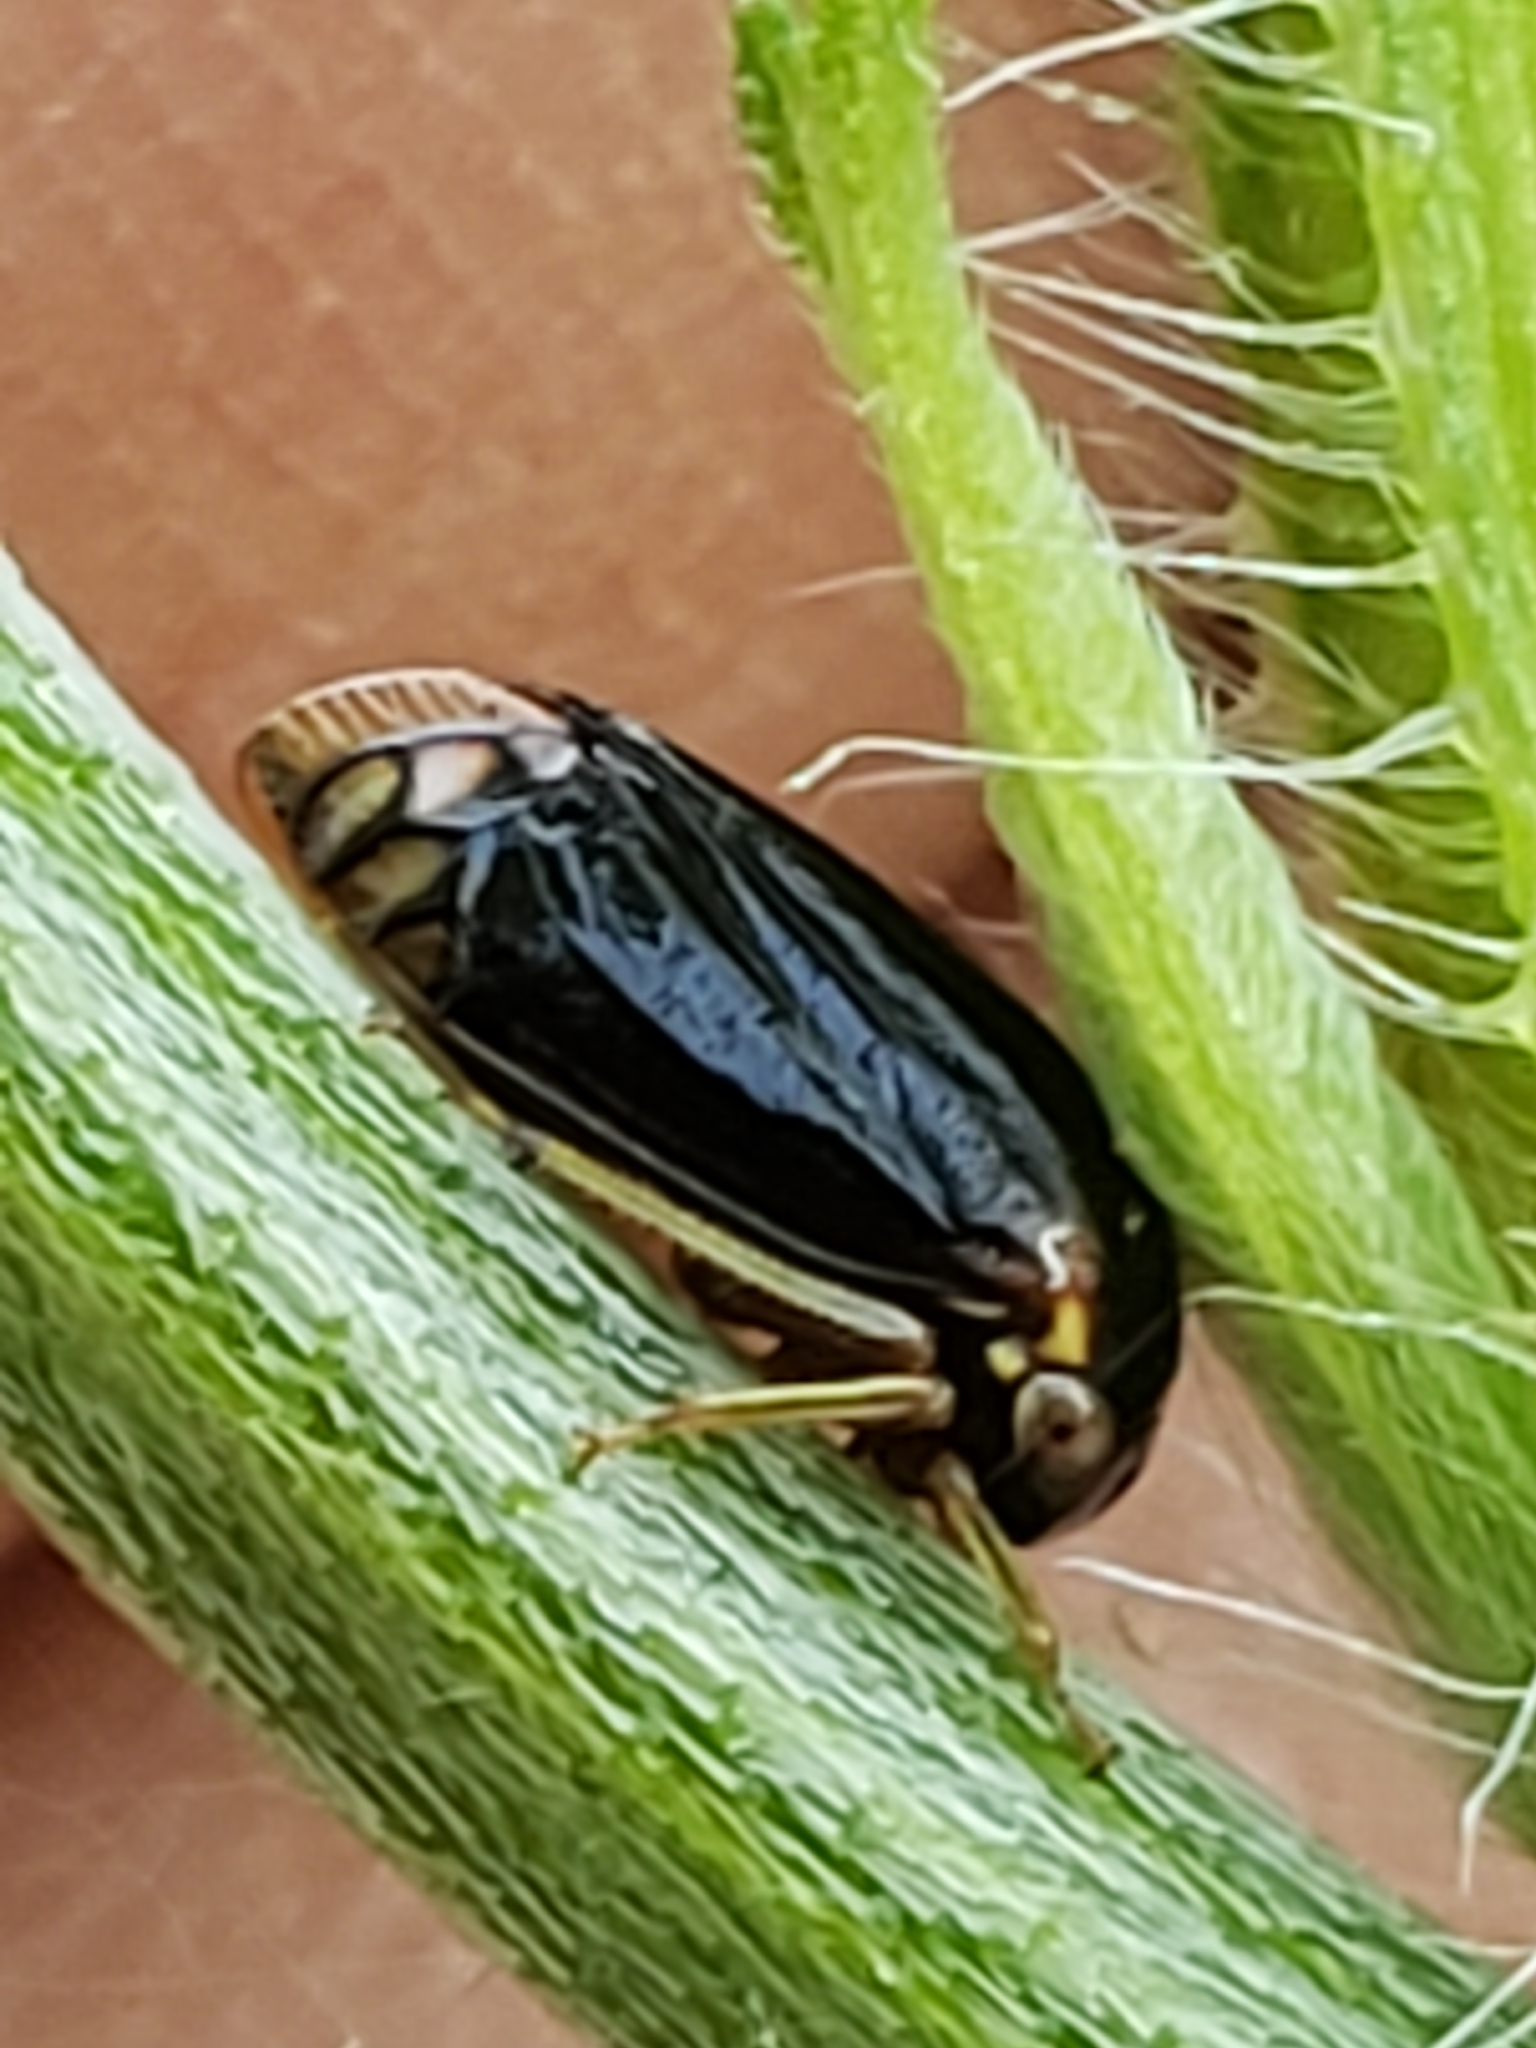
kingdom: Animalia
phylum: Arthropoda
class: Insecta
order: Hemiptera
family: Membracidae
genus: Acutalis
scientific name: Acutalis tartarea
